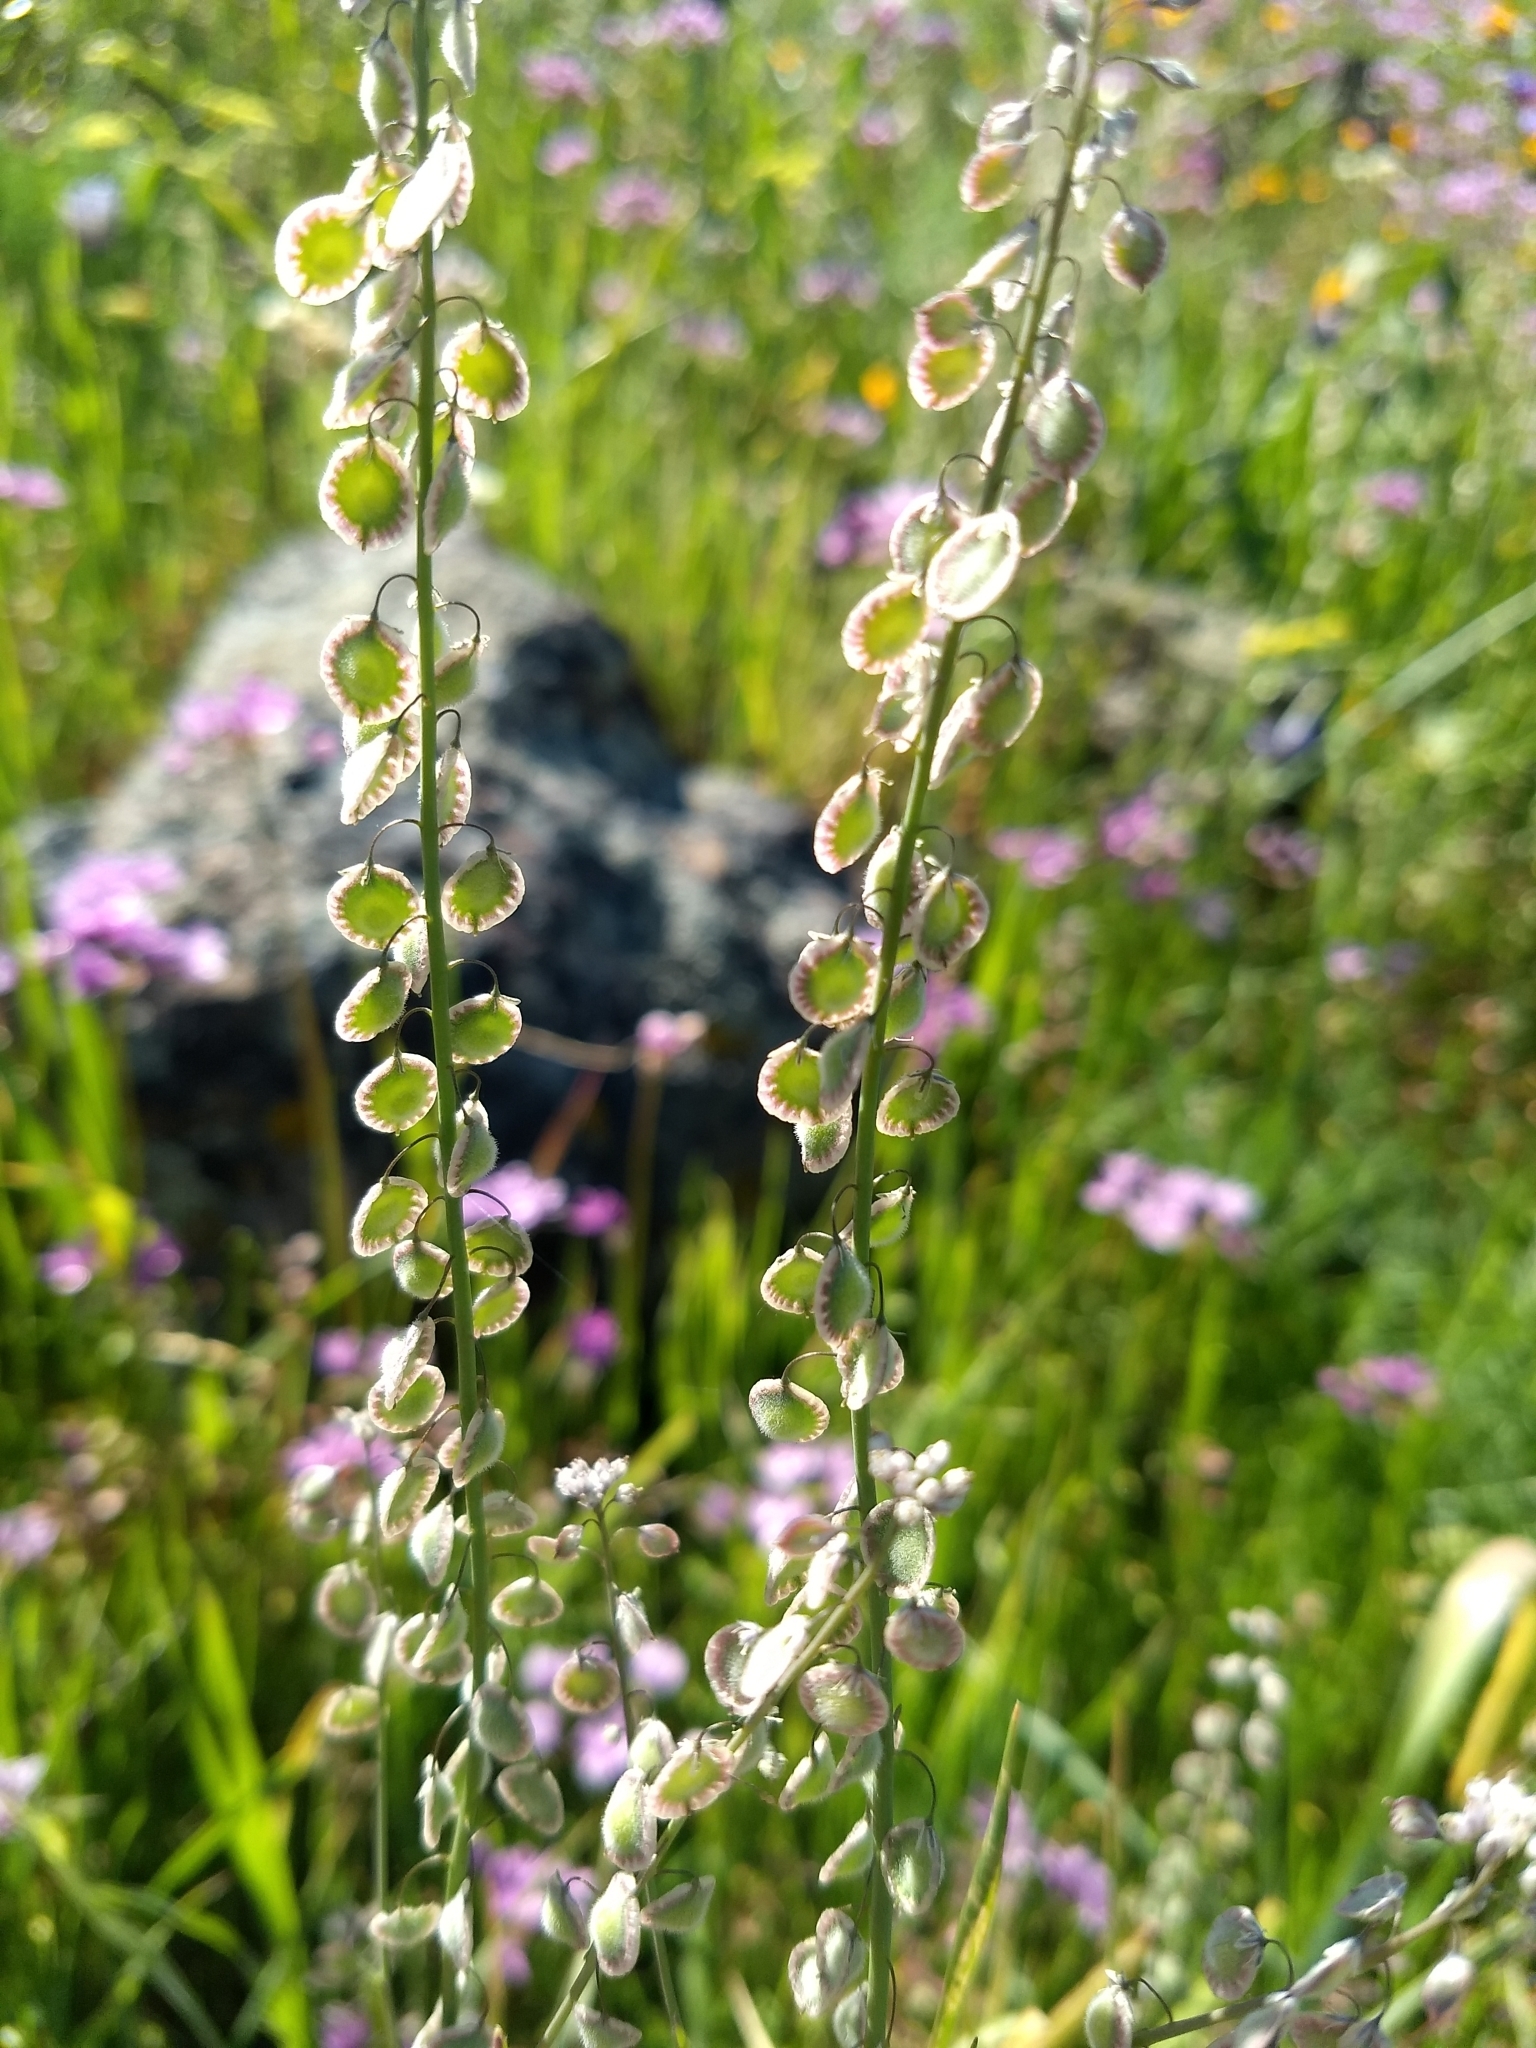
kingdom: Plantae
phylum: Tracheophyta
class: Magnoliopsida
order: Brassicales
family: Brassicaceae
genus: Thysanocarpus
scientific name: Thysanocarpus curvipes
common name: Sand fringepod
